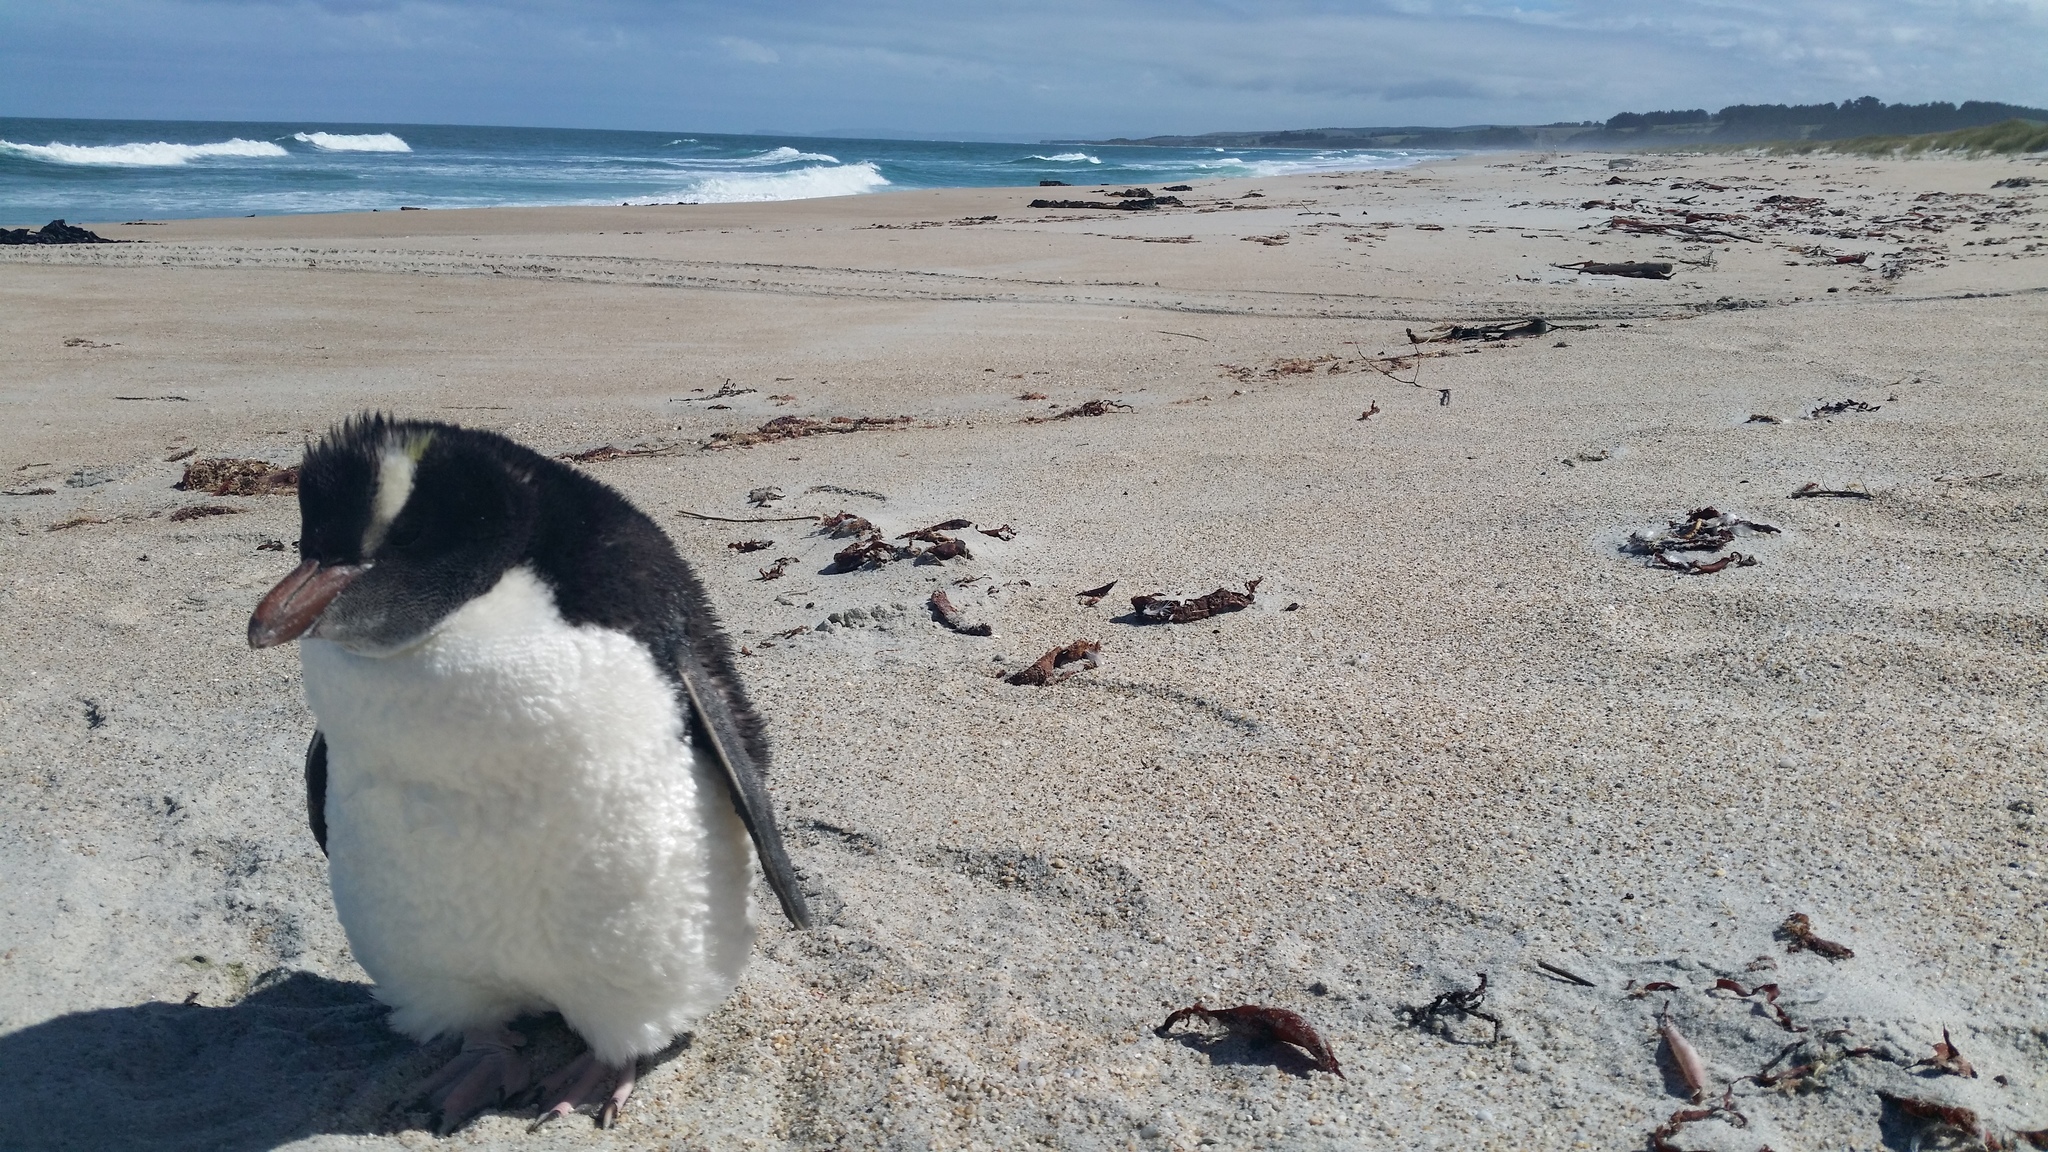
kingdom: Animalia
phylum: Chordata
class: Aves
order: Sphenisciformes
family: Spheniscidae
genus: Eudyptes
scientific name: Eudyptes sclateri
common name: Erect-crested penguin
